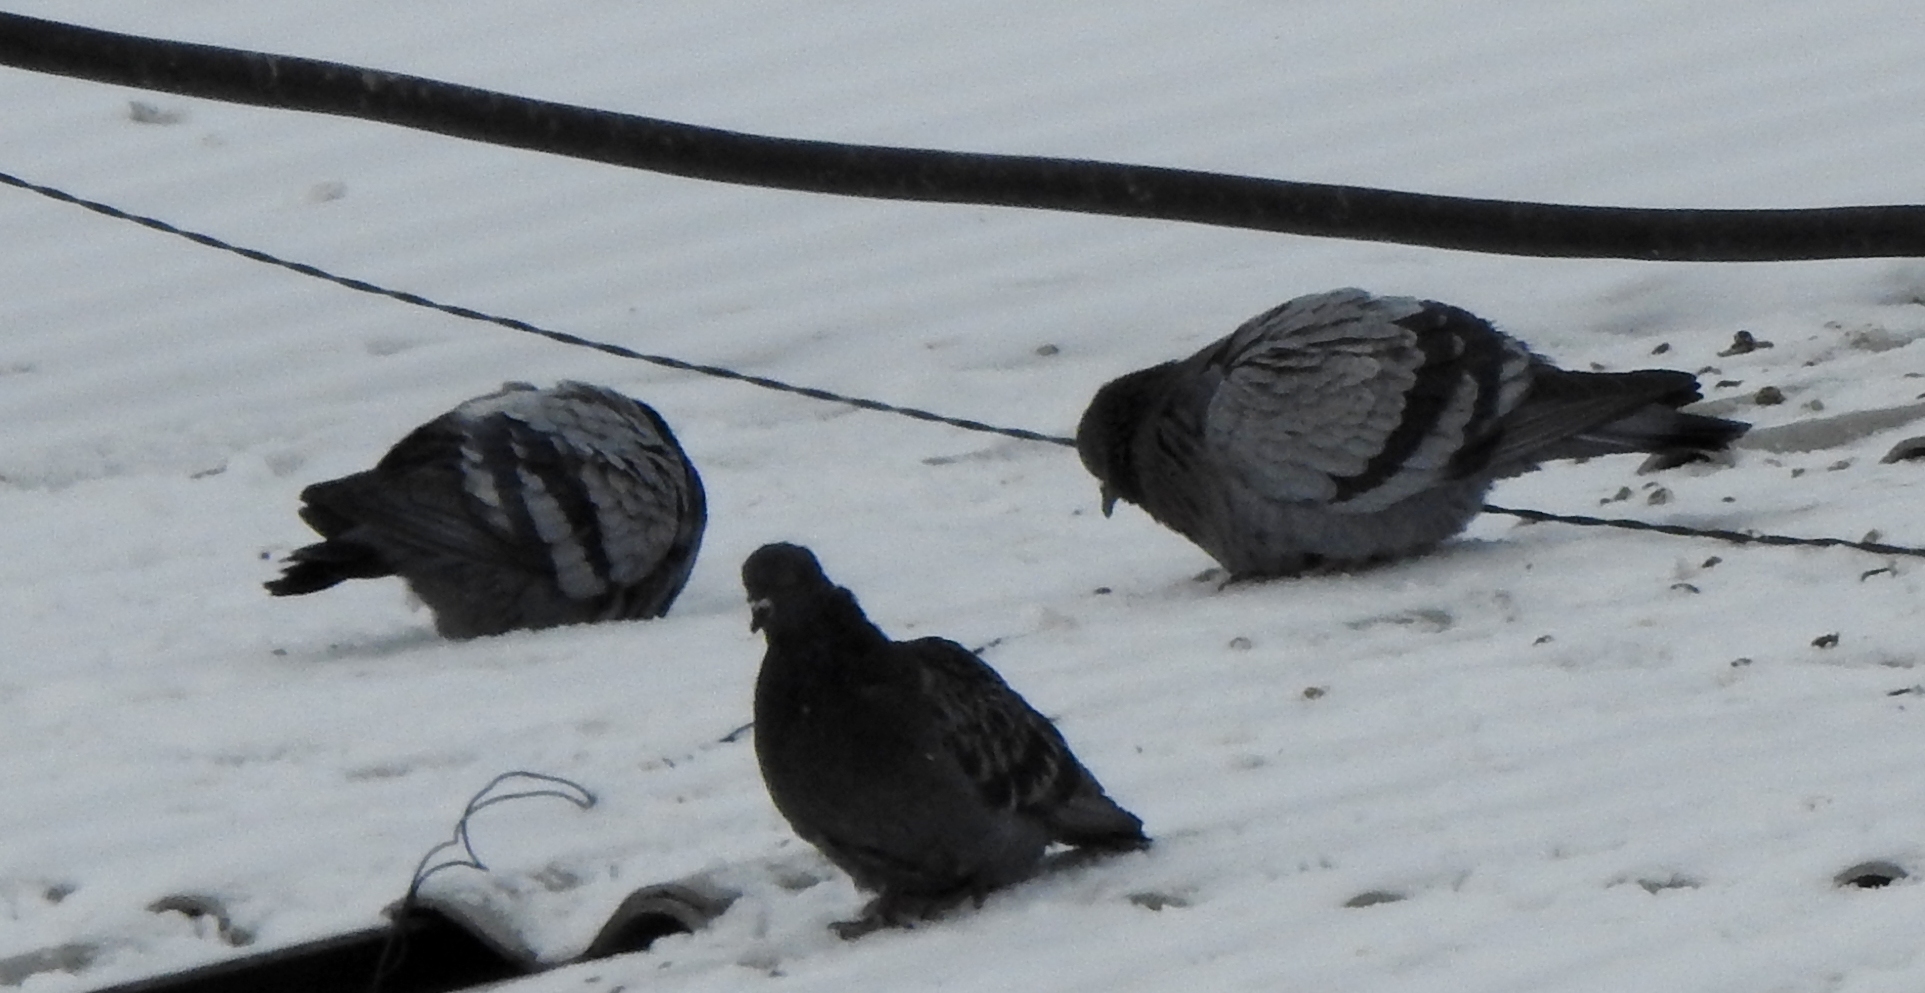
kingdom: Animalia
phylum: Chordata
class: Aves
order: Columbiformes
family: Columbidae
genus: Columba
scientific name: Columba livia
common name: Rock pigeon
